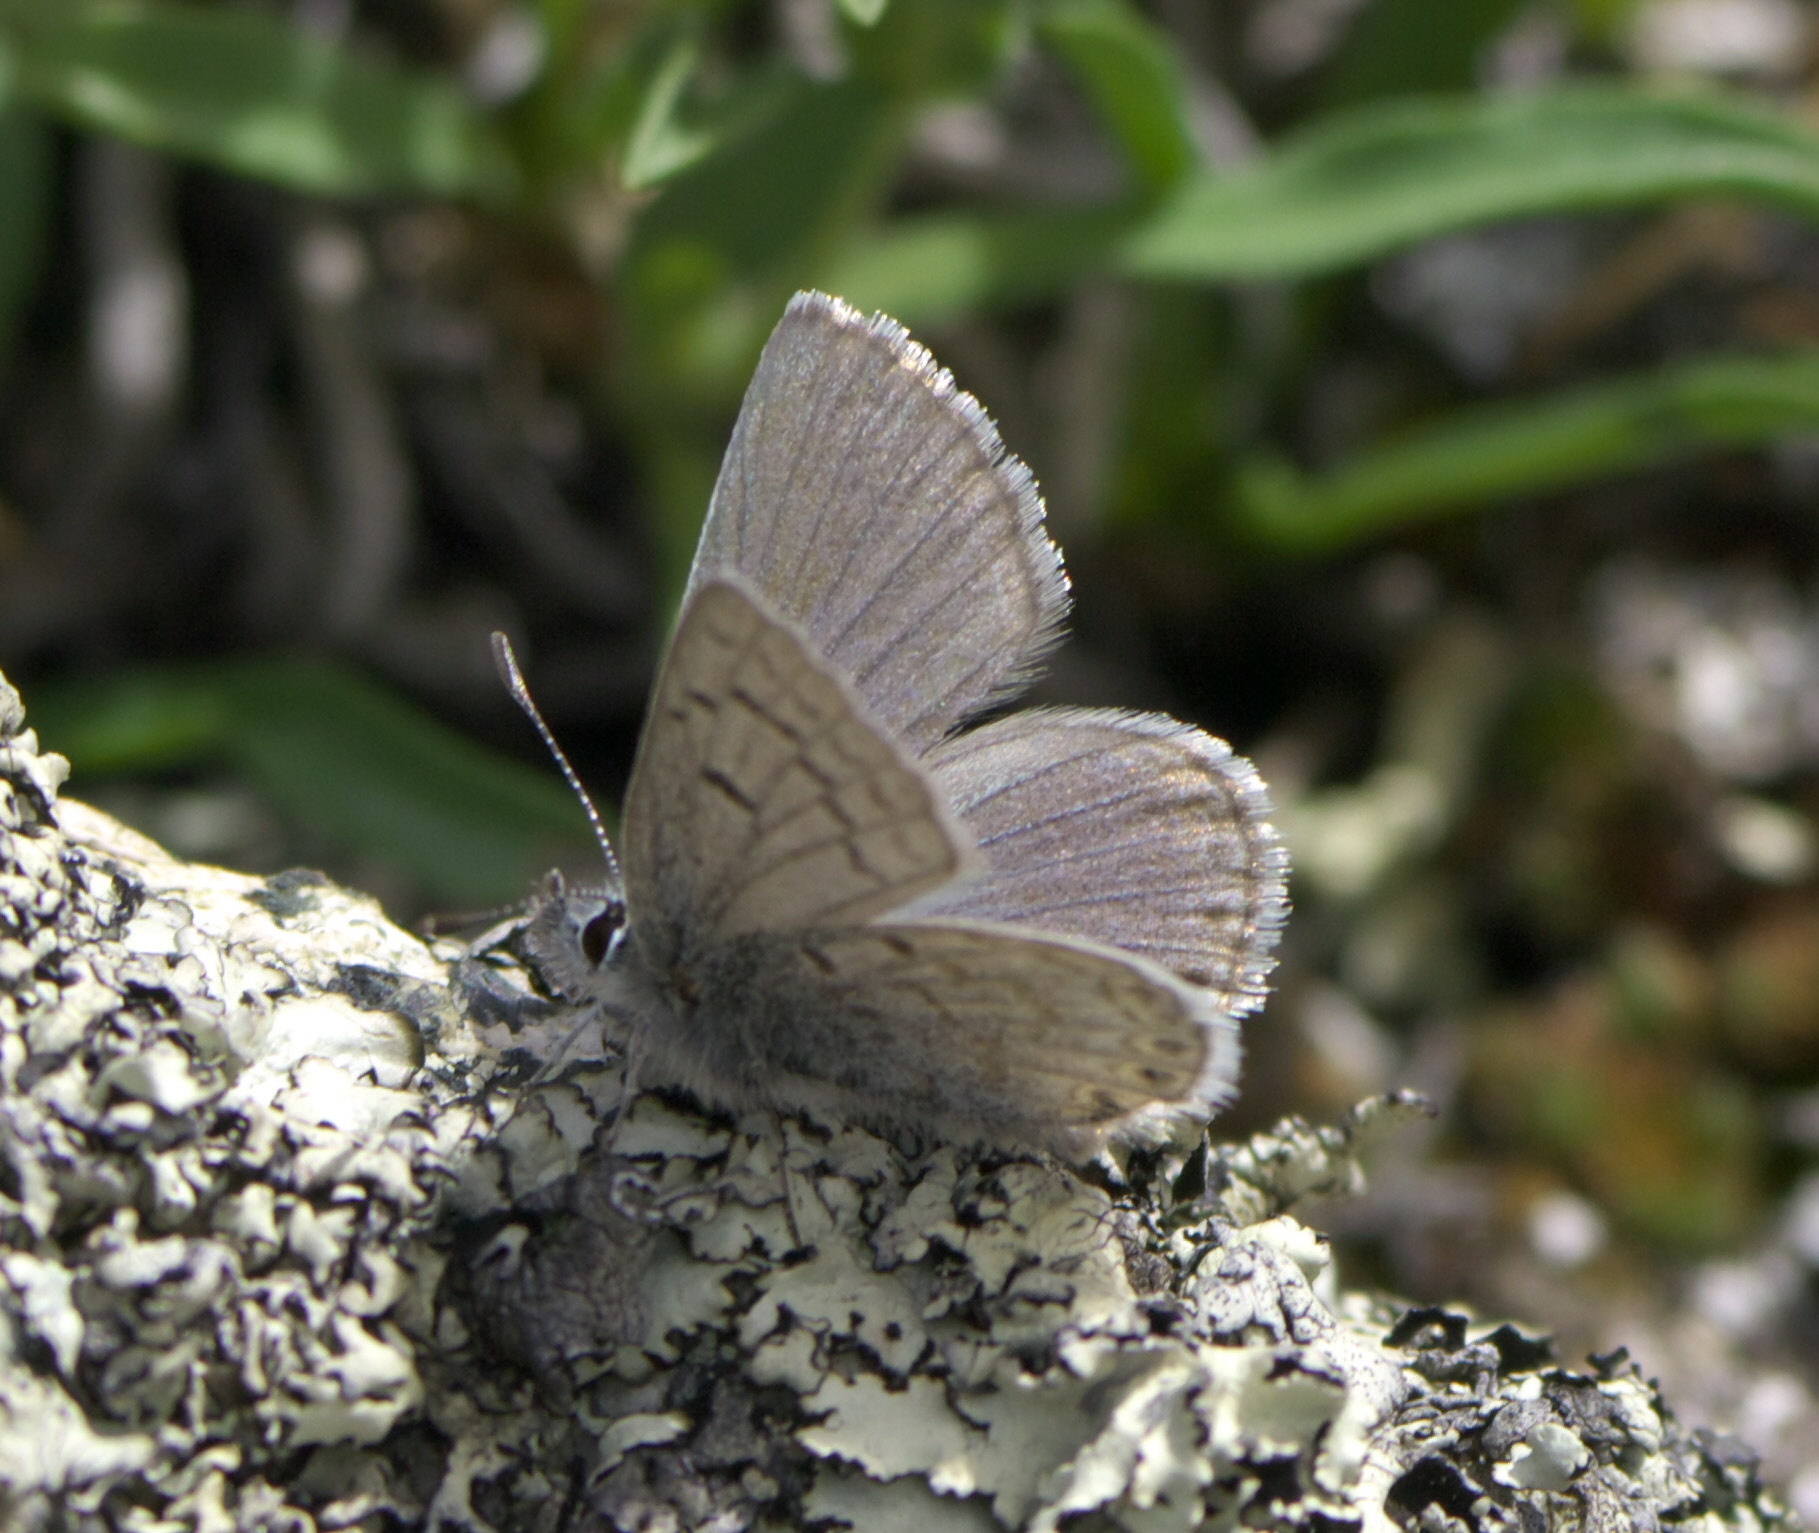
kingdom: Animalia
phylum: Arthropoda
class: Insecta
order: Lepidoptera
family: Lycaenidae
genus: Icaricia
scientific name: Icaricia shasta
